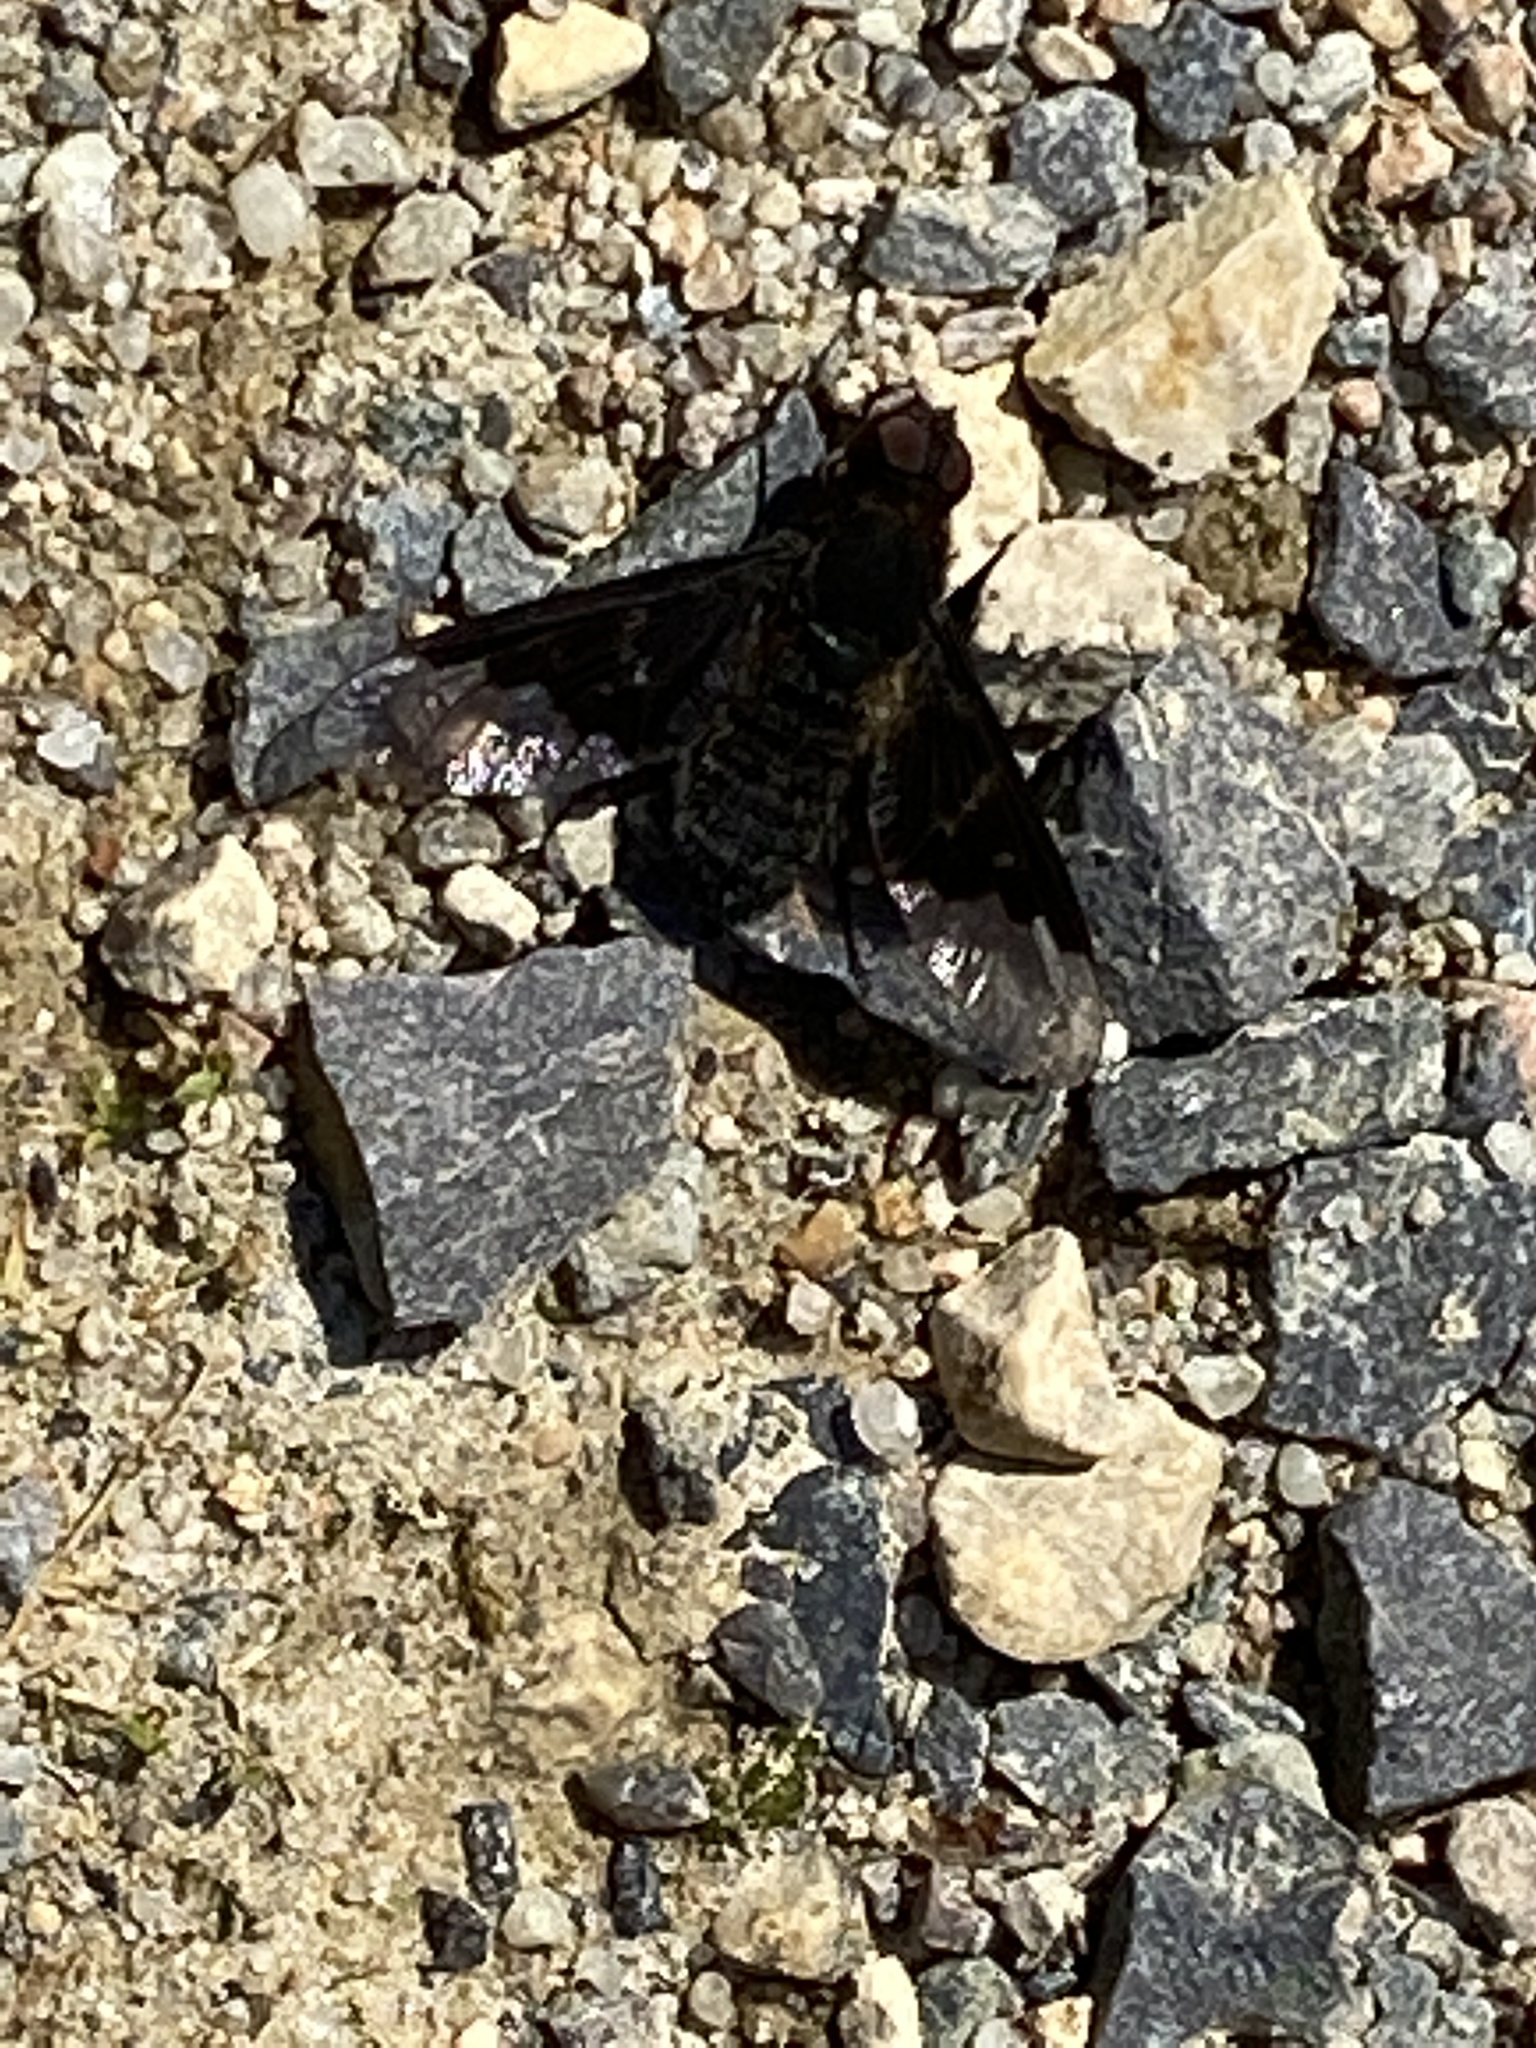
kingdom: Animalia
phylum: Arthropoda
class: Insecta
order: Diptera
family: Bombyliidae
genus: Hemipenthes
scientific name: Hemipenthes morio
